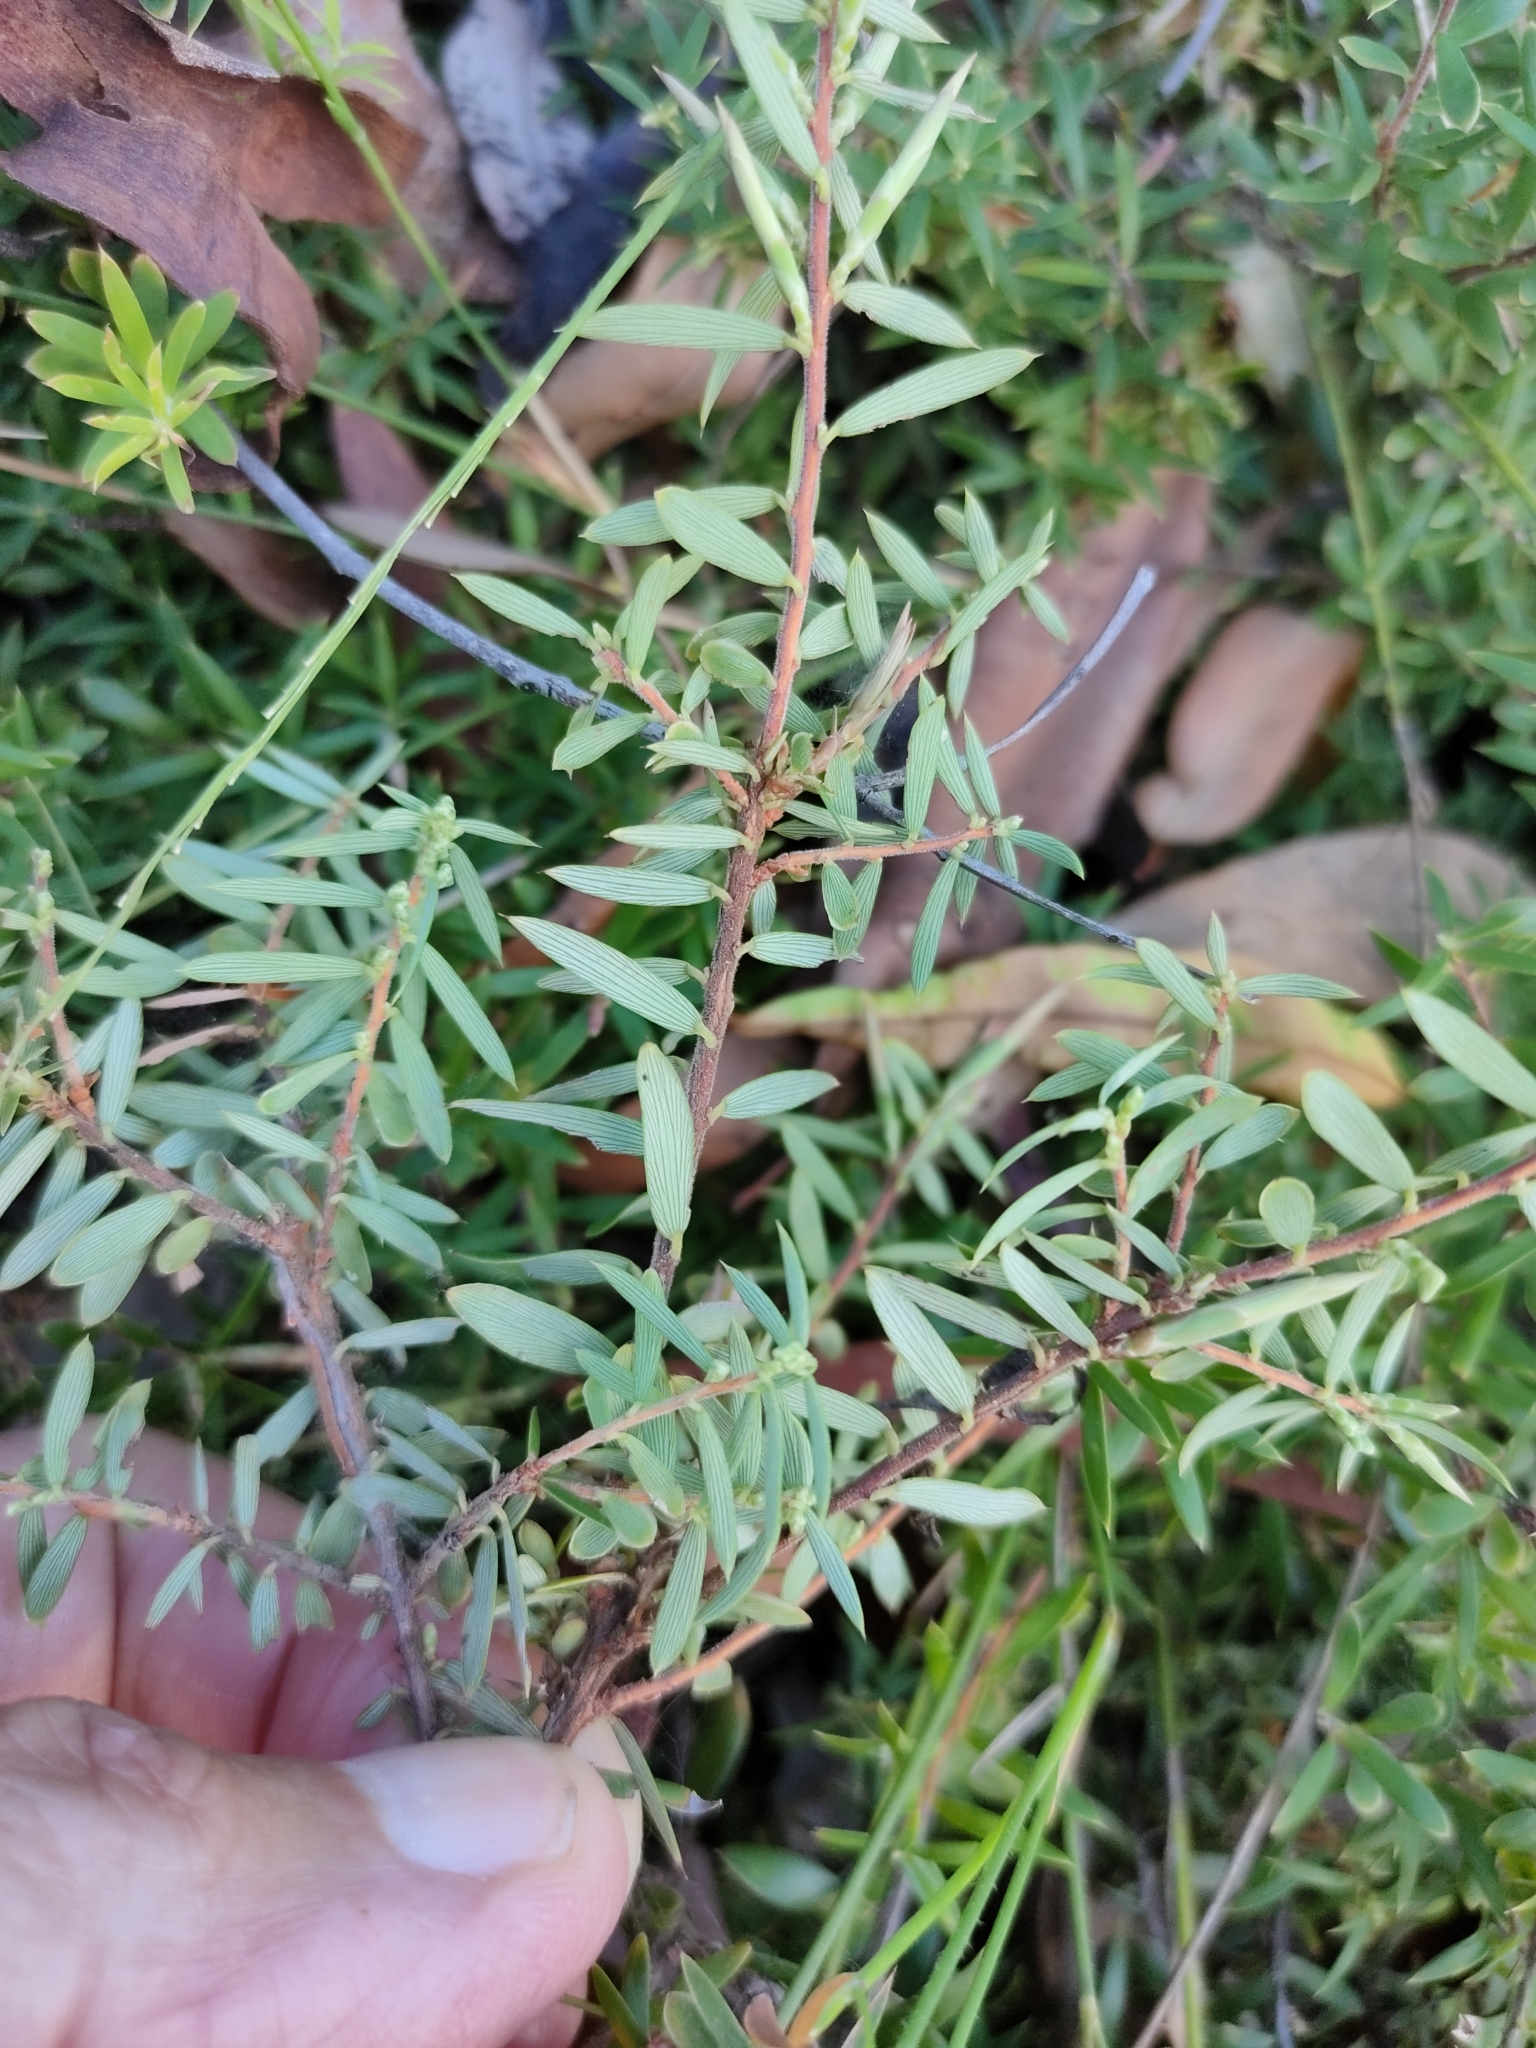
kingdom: Plantae
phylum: Tracheophyta
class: Magnoliopsida
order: Ericales
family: Ericaceae
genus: Acrotriche
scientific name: Acrotriche aggregata
